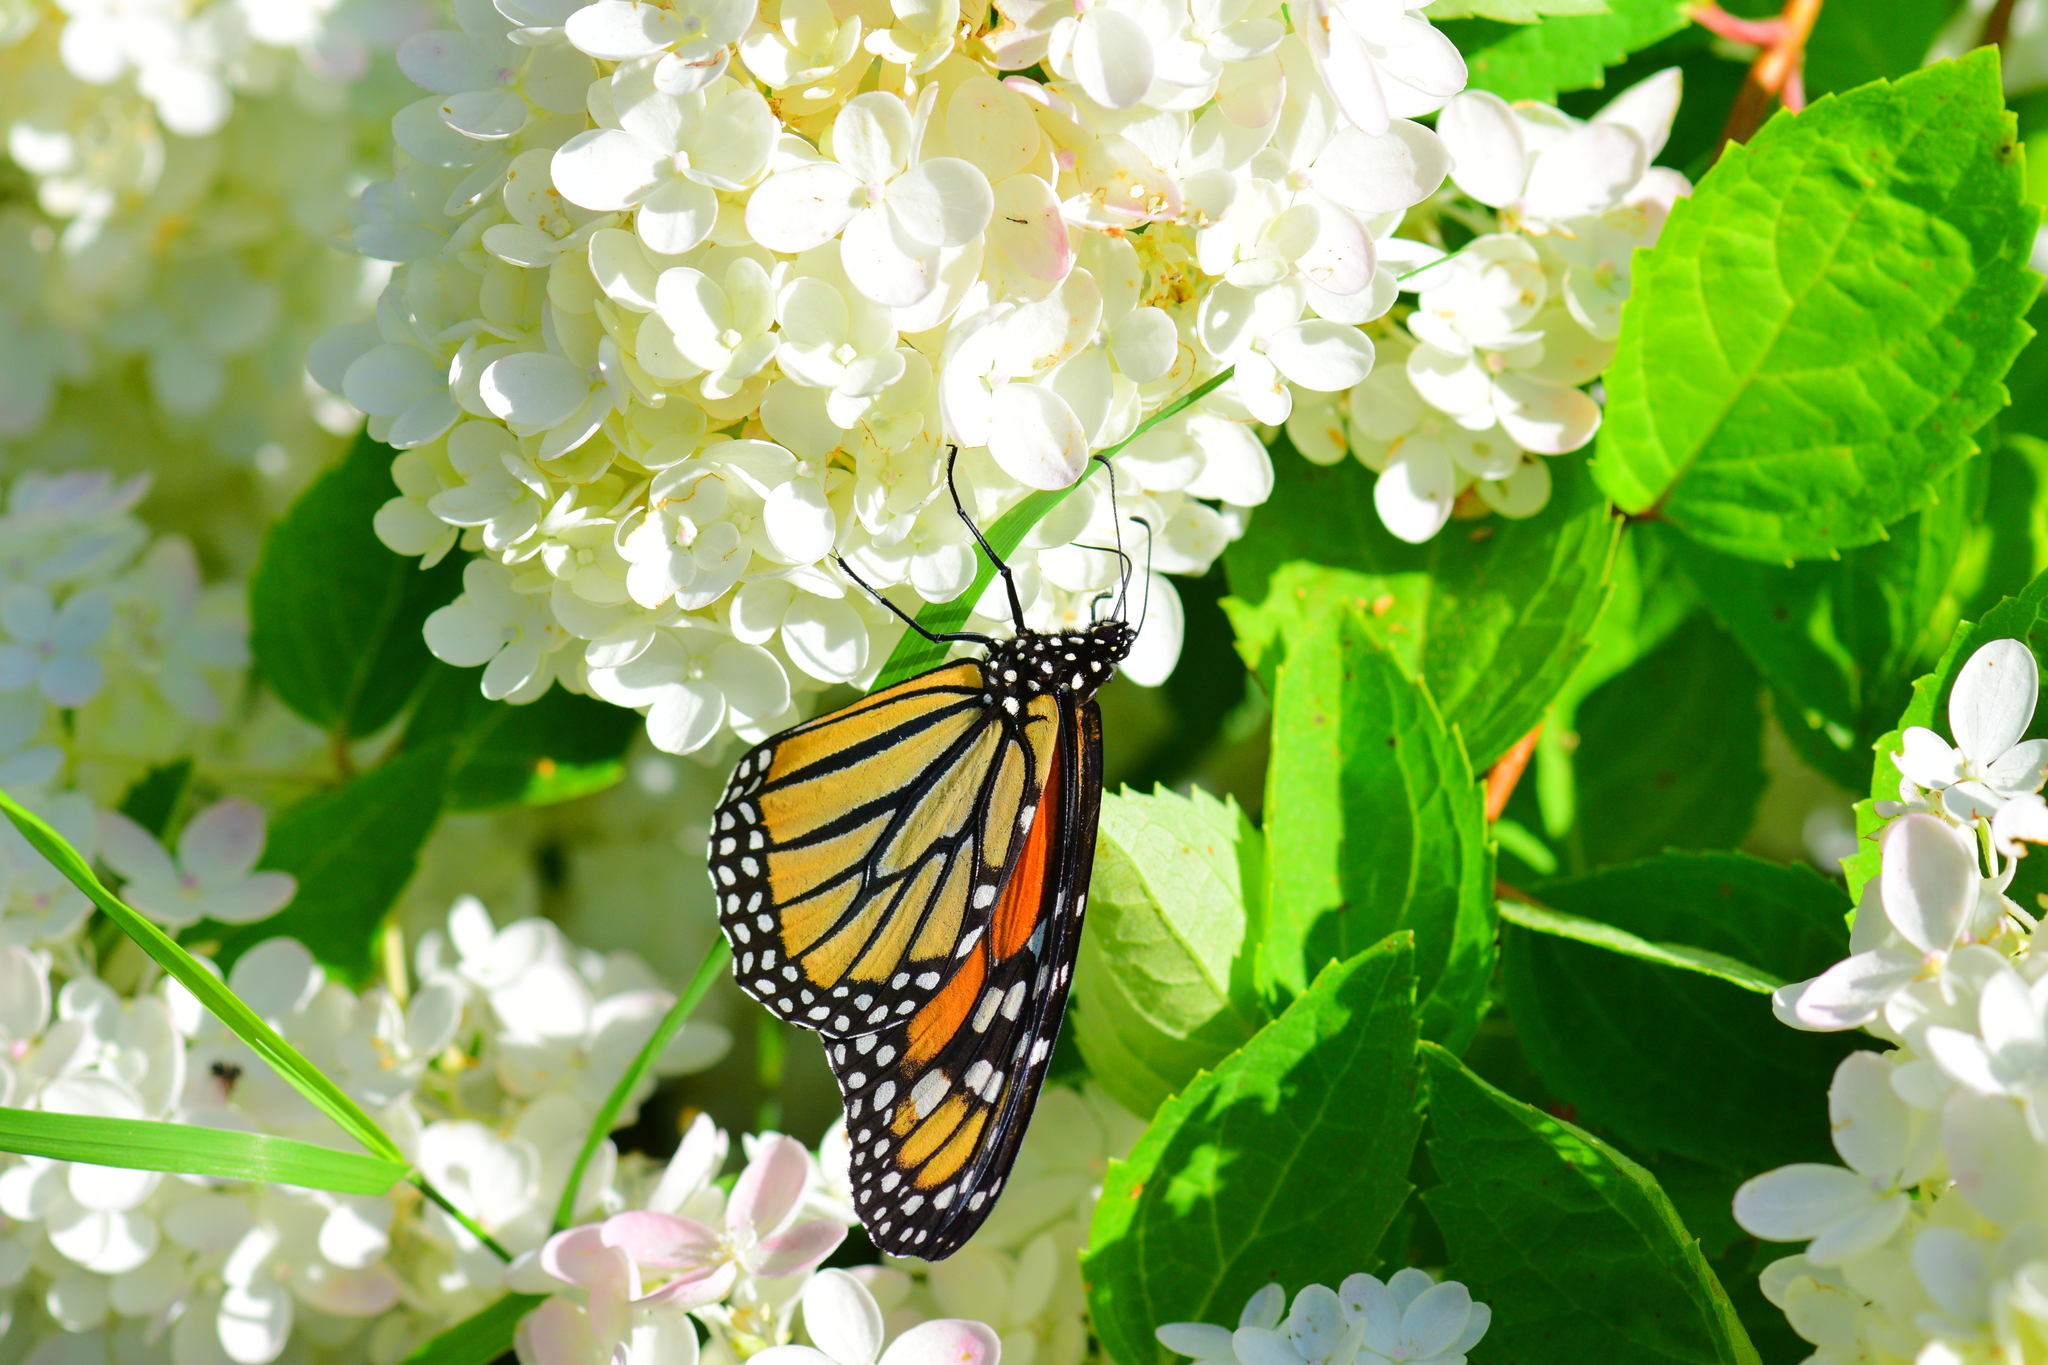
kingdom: Animalia
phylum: Arthropoda
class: Insecta
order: Lepidoptera
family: Nymphalidae
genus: Danaus
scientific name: Danaus plexippus
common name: Monarch
